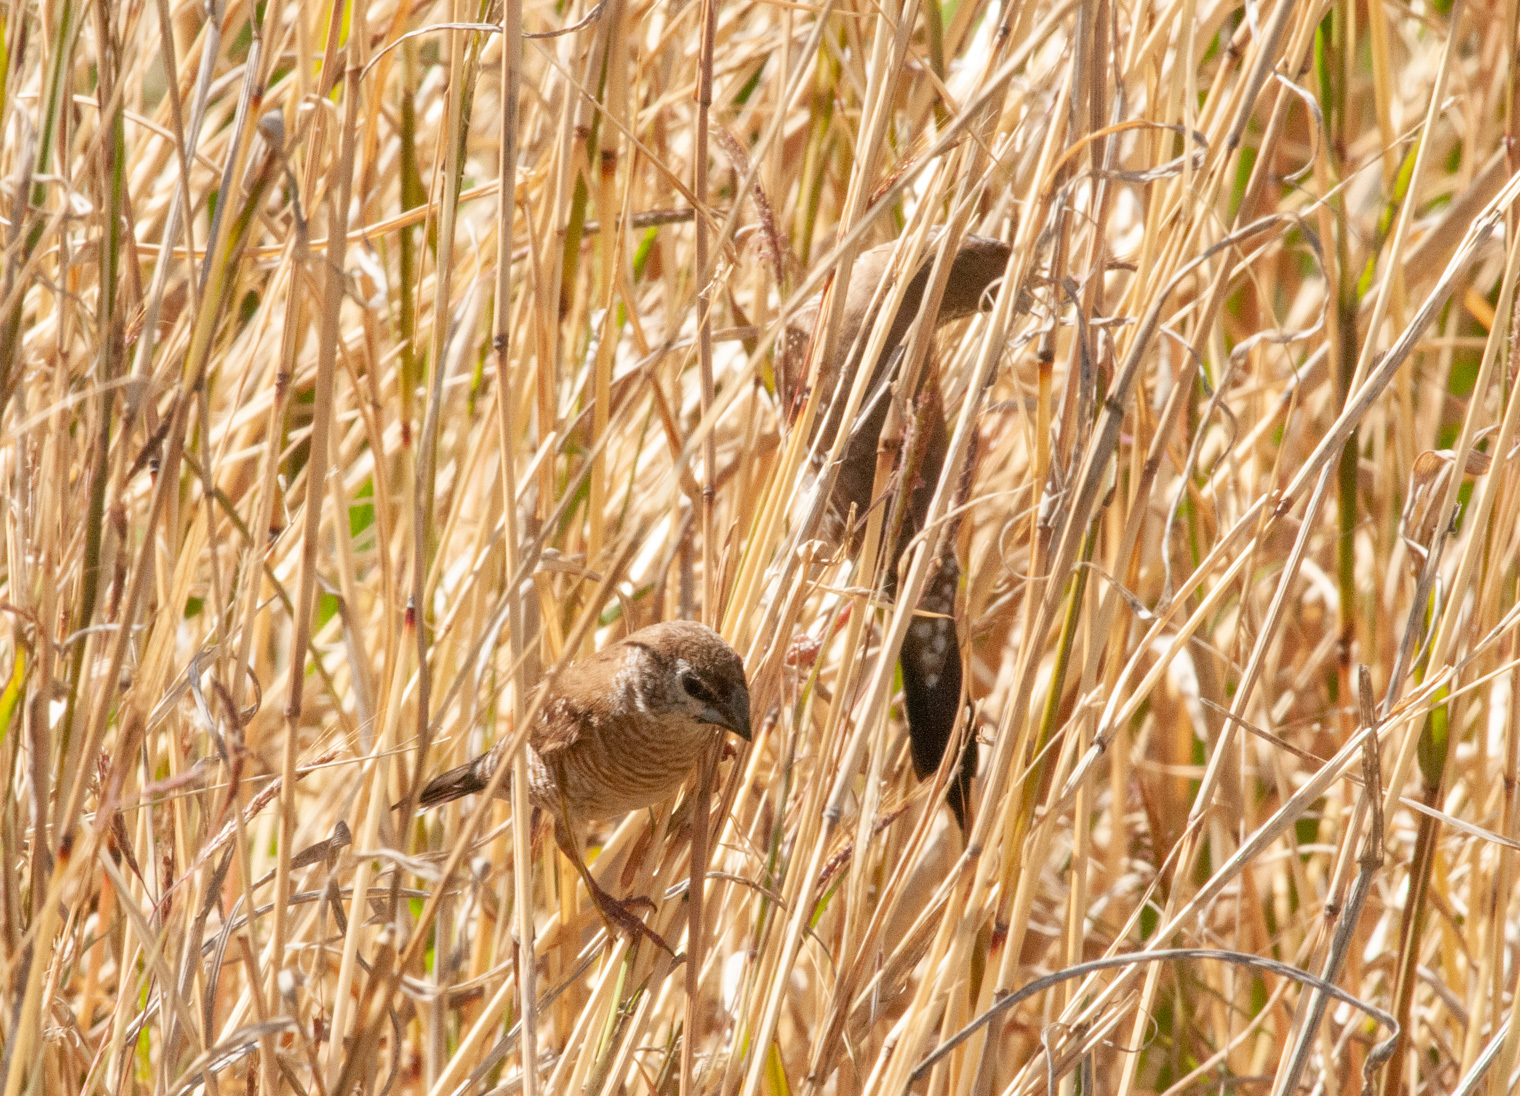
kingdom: Animalia
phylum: Chordata
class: Aves
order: Passeriformes
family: Estrildidae
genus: Neochmia
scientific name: Neochmia modesta
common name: Plum-headed finch
